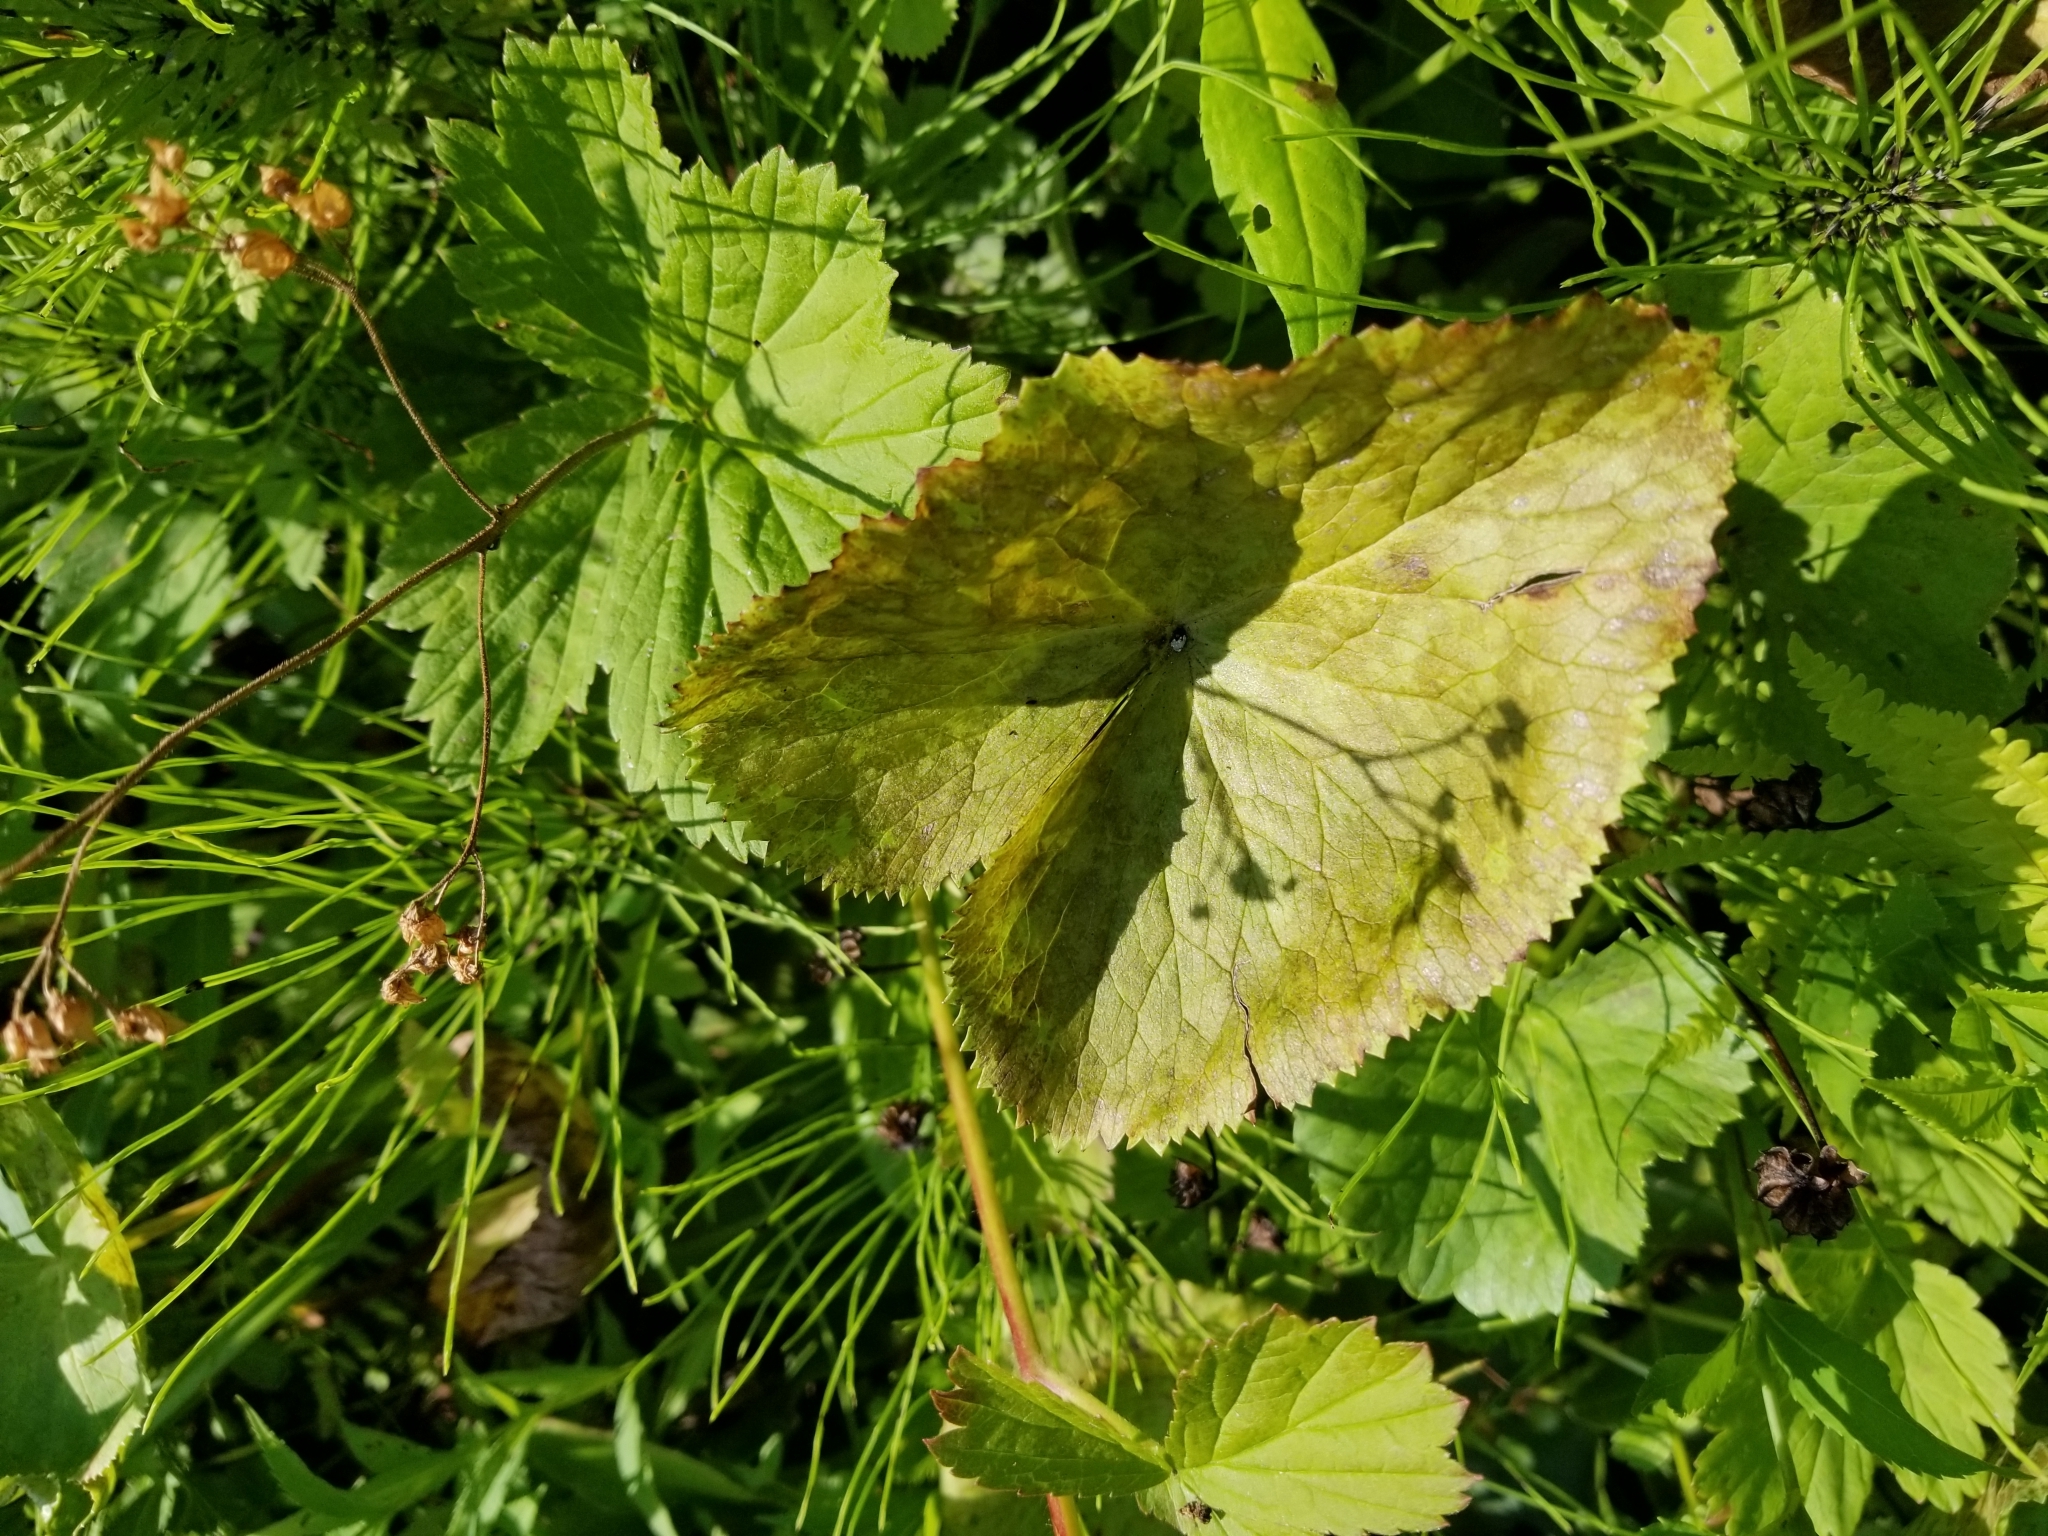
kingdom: Plantae
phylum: Tracheophyta
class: Magnoliopsida
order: Ranunculales
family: Ranunculaceae
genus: Caltha
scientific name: Caltha palustris
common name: Marsh marigold
